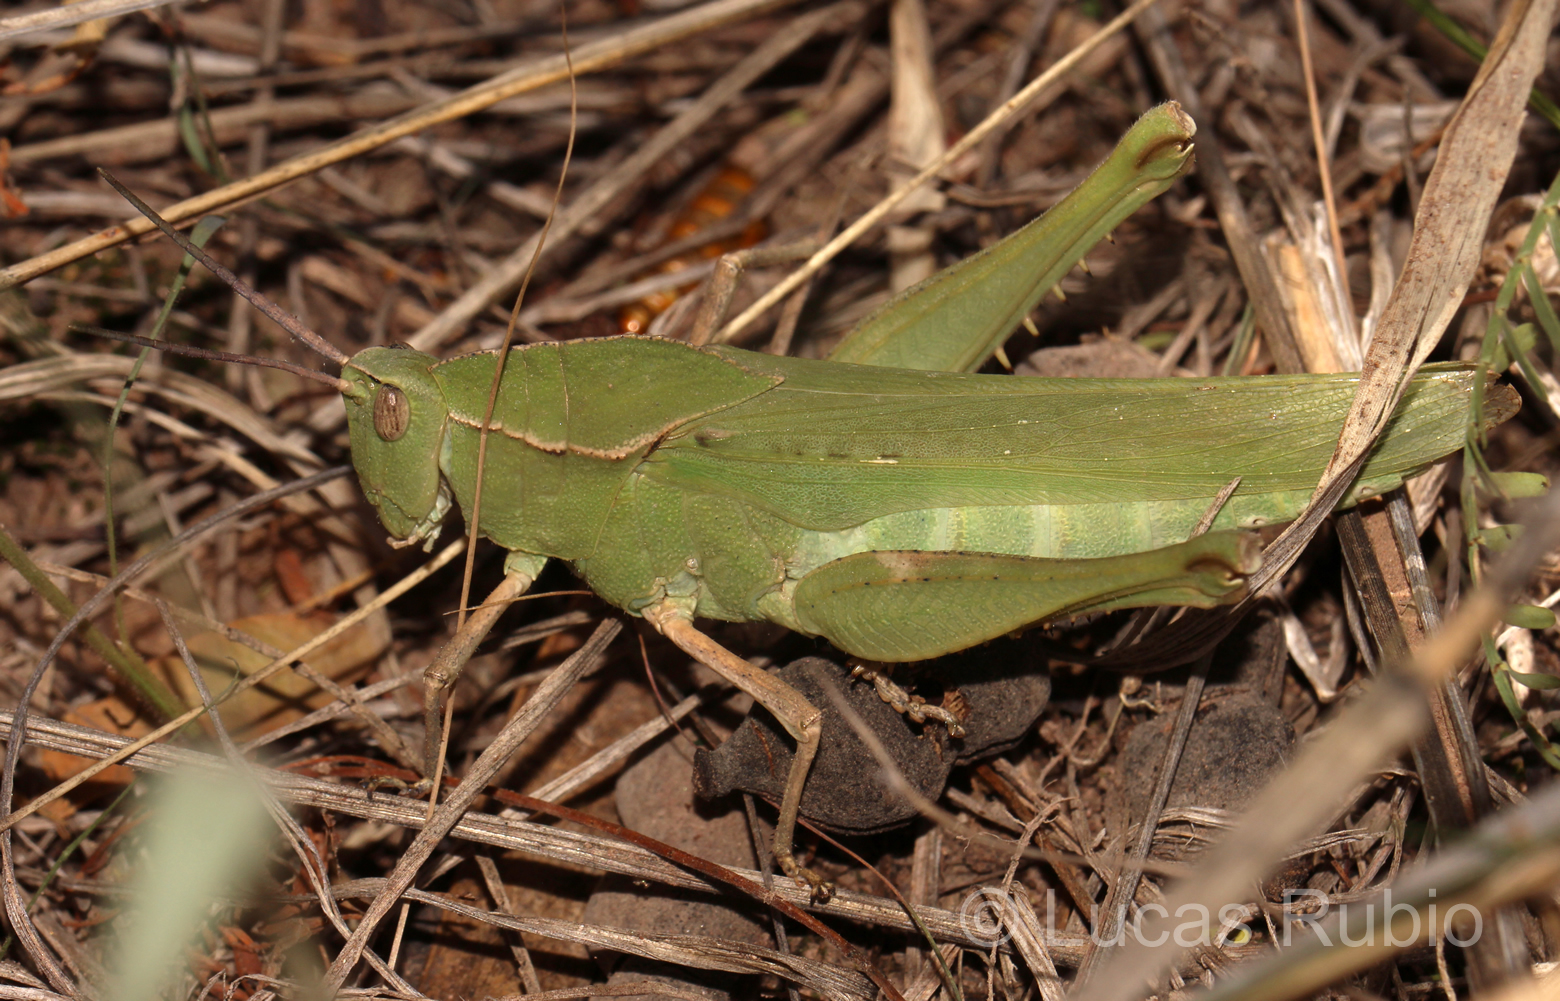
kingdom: Animalia
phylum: Arthropoda
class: Insecta
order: Orthoptera
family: Romaleidae
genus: Xyleus
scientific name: Xyleus insignis
